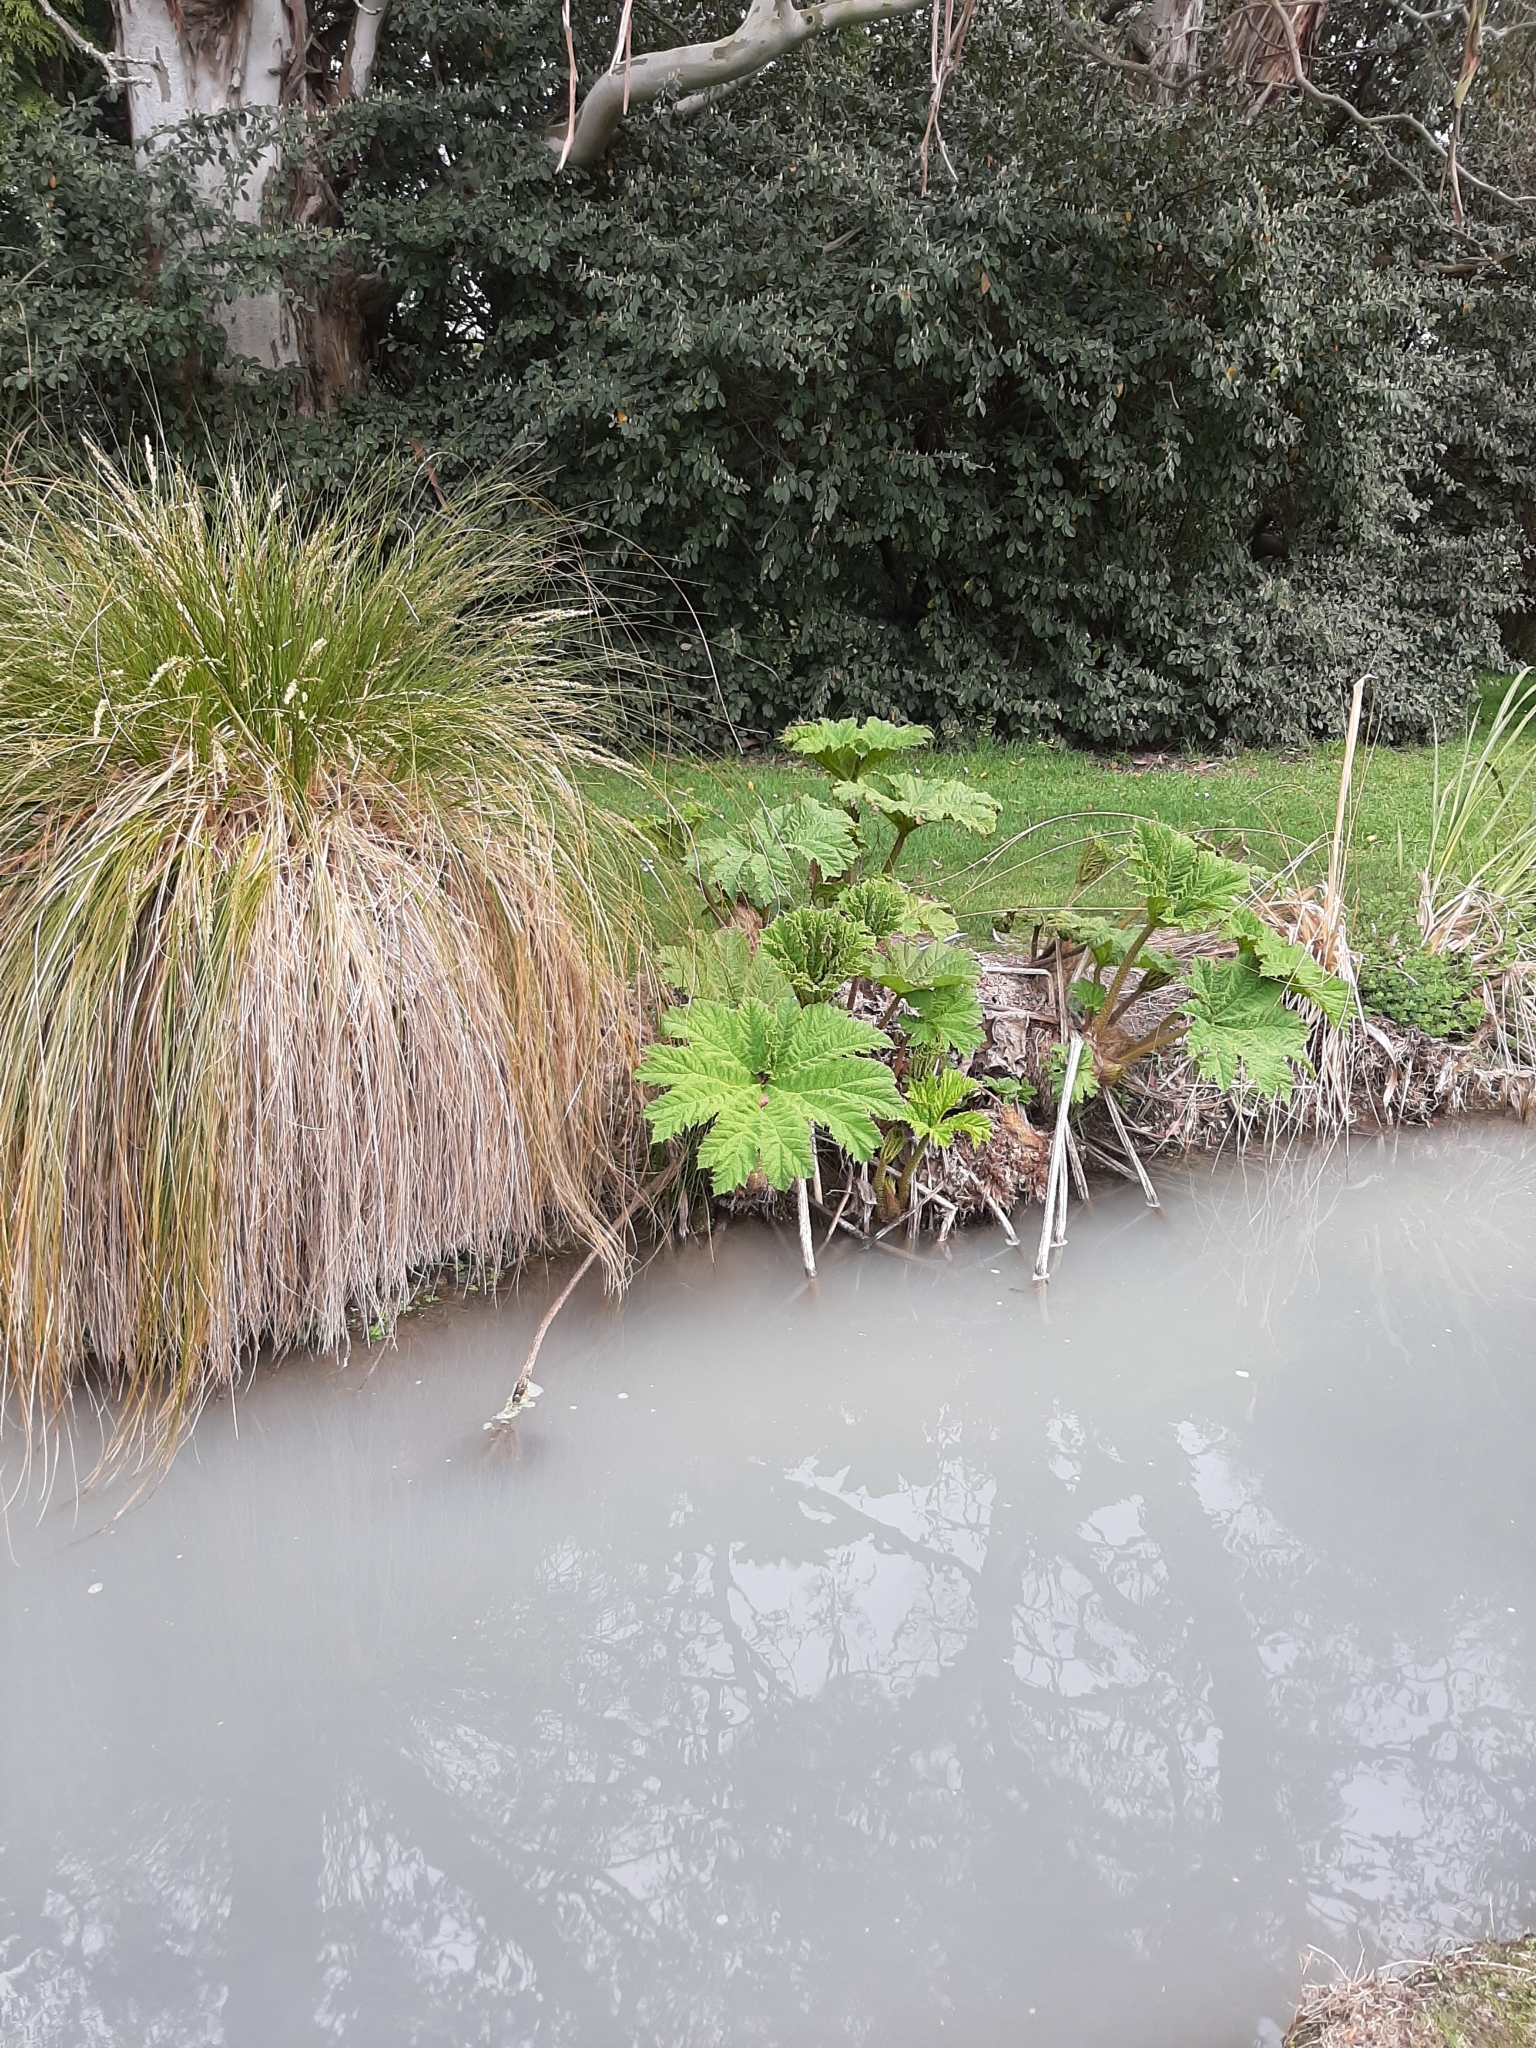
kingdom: Plantae
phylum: Tracheophyta
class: Magnoliopsida
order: Gunnerales
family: Gunneraceae
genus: Gunnera
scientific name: Gunnera tinctoria
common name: Giant-rhubarb
